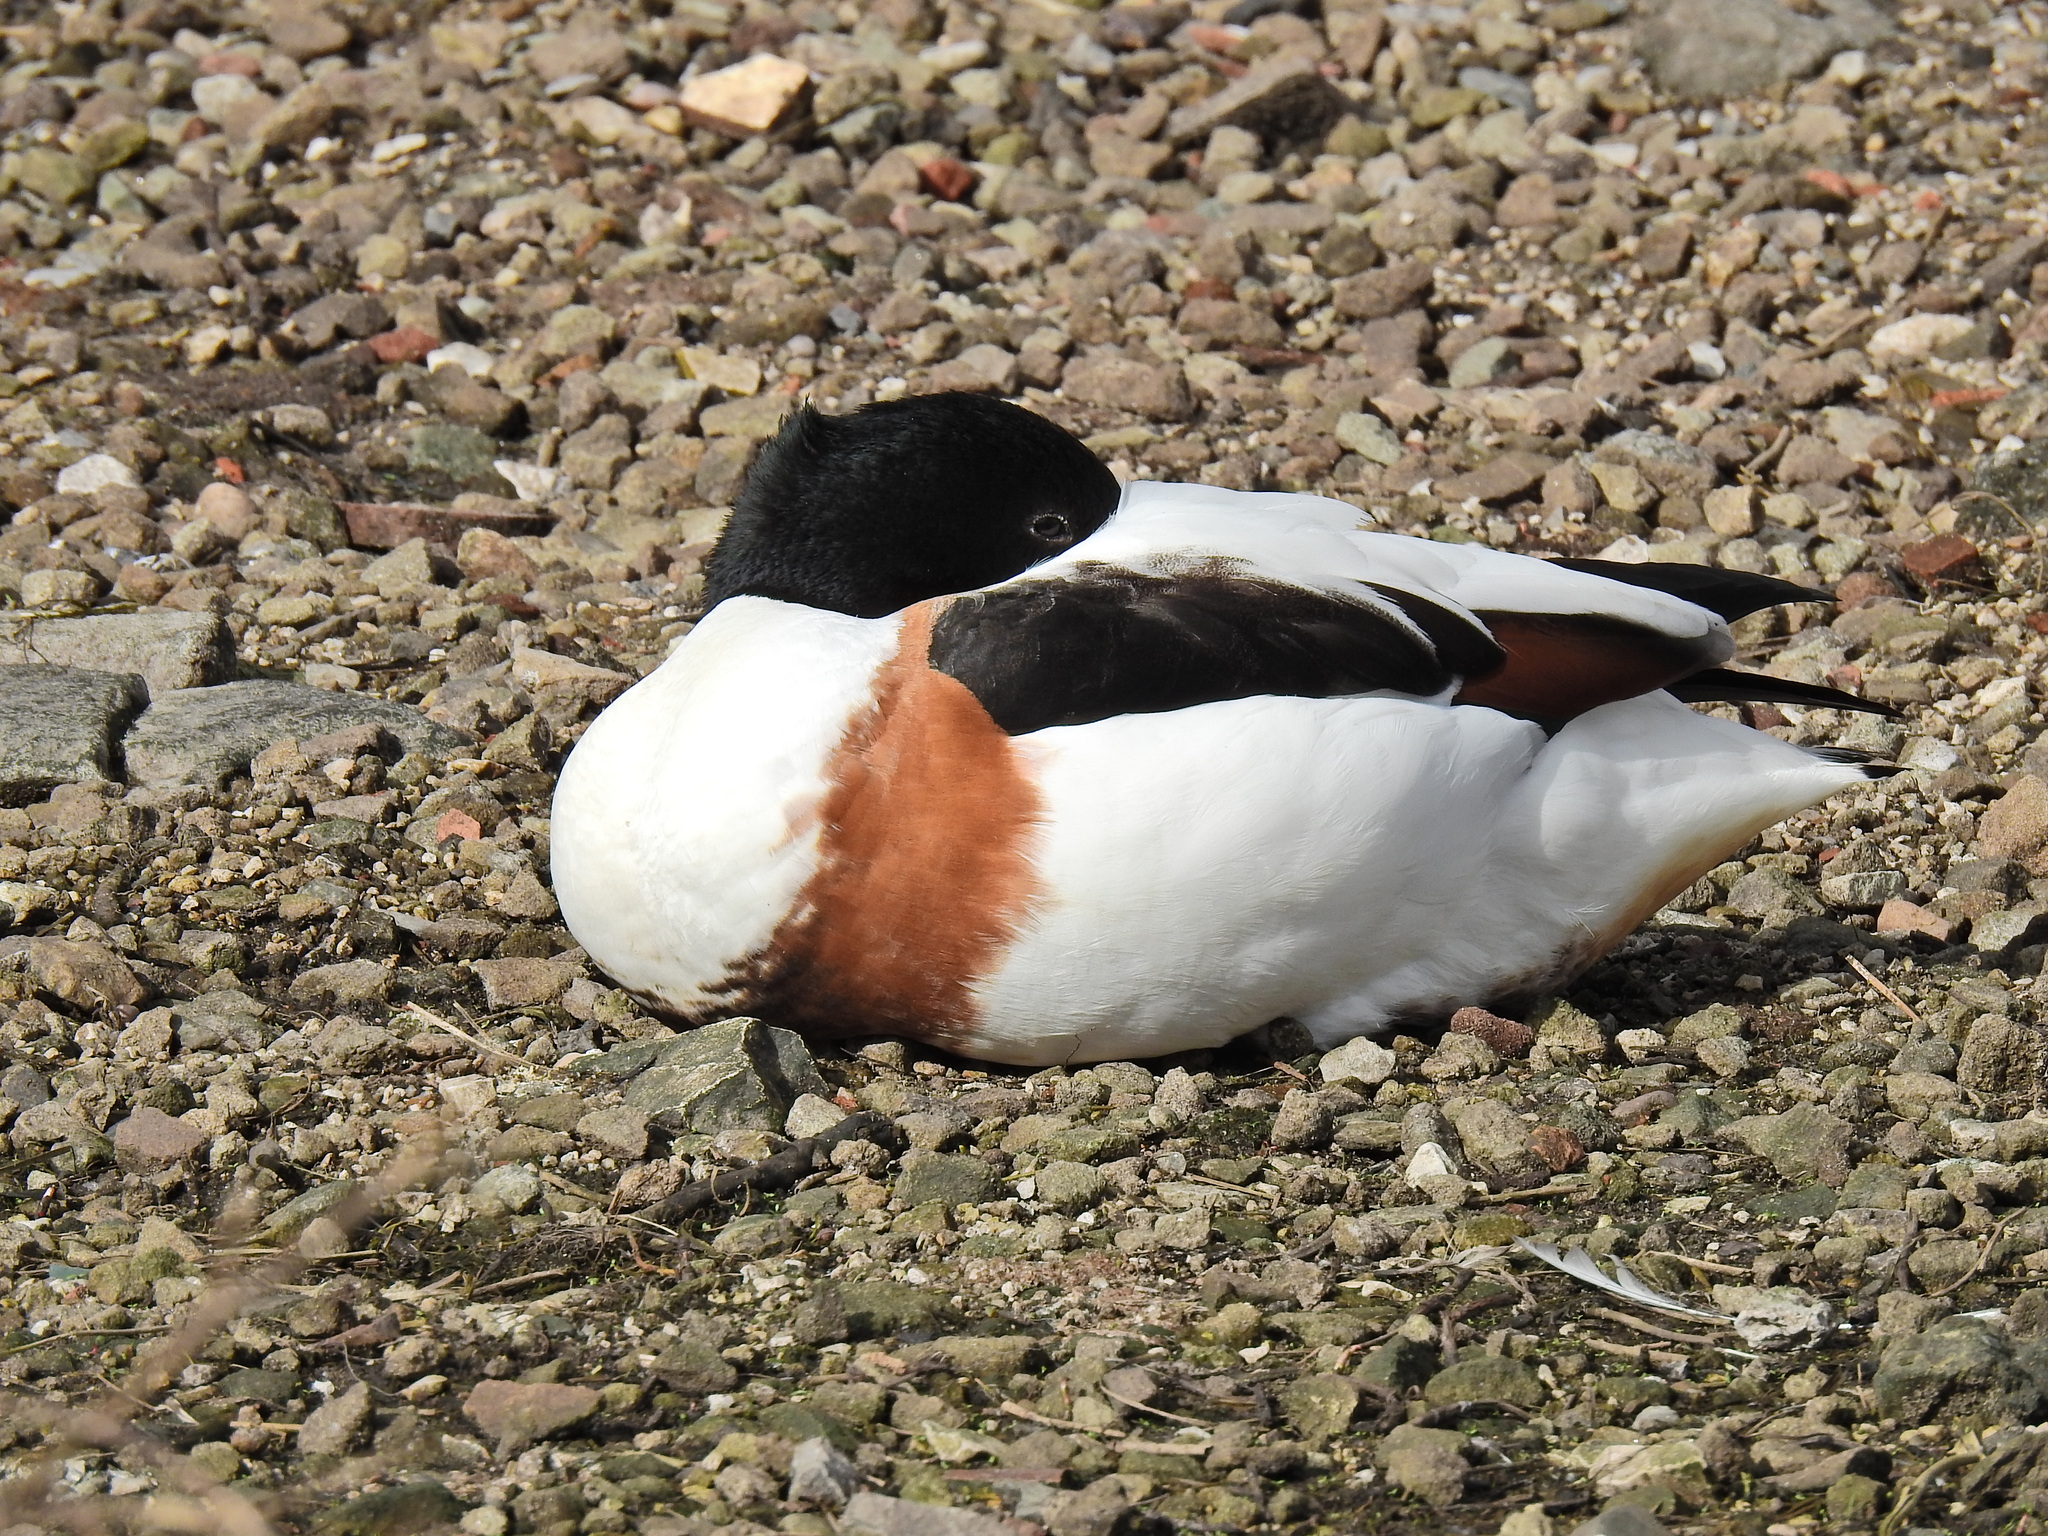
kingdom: Animalia
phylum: Chordata
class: Aves
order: Anseriformes
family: Anatidae
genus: Tadorna
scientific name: Tadorna tadorna
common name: Common shelduck
